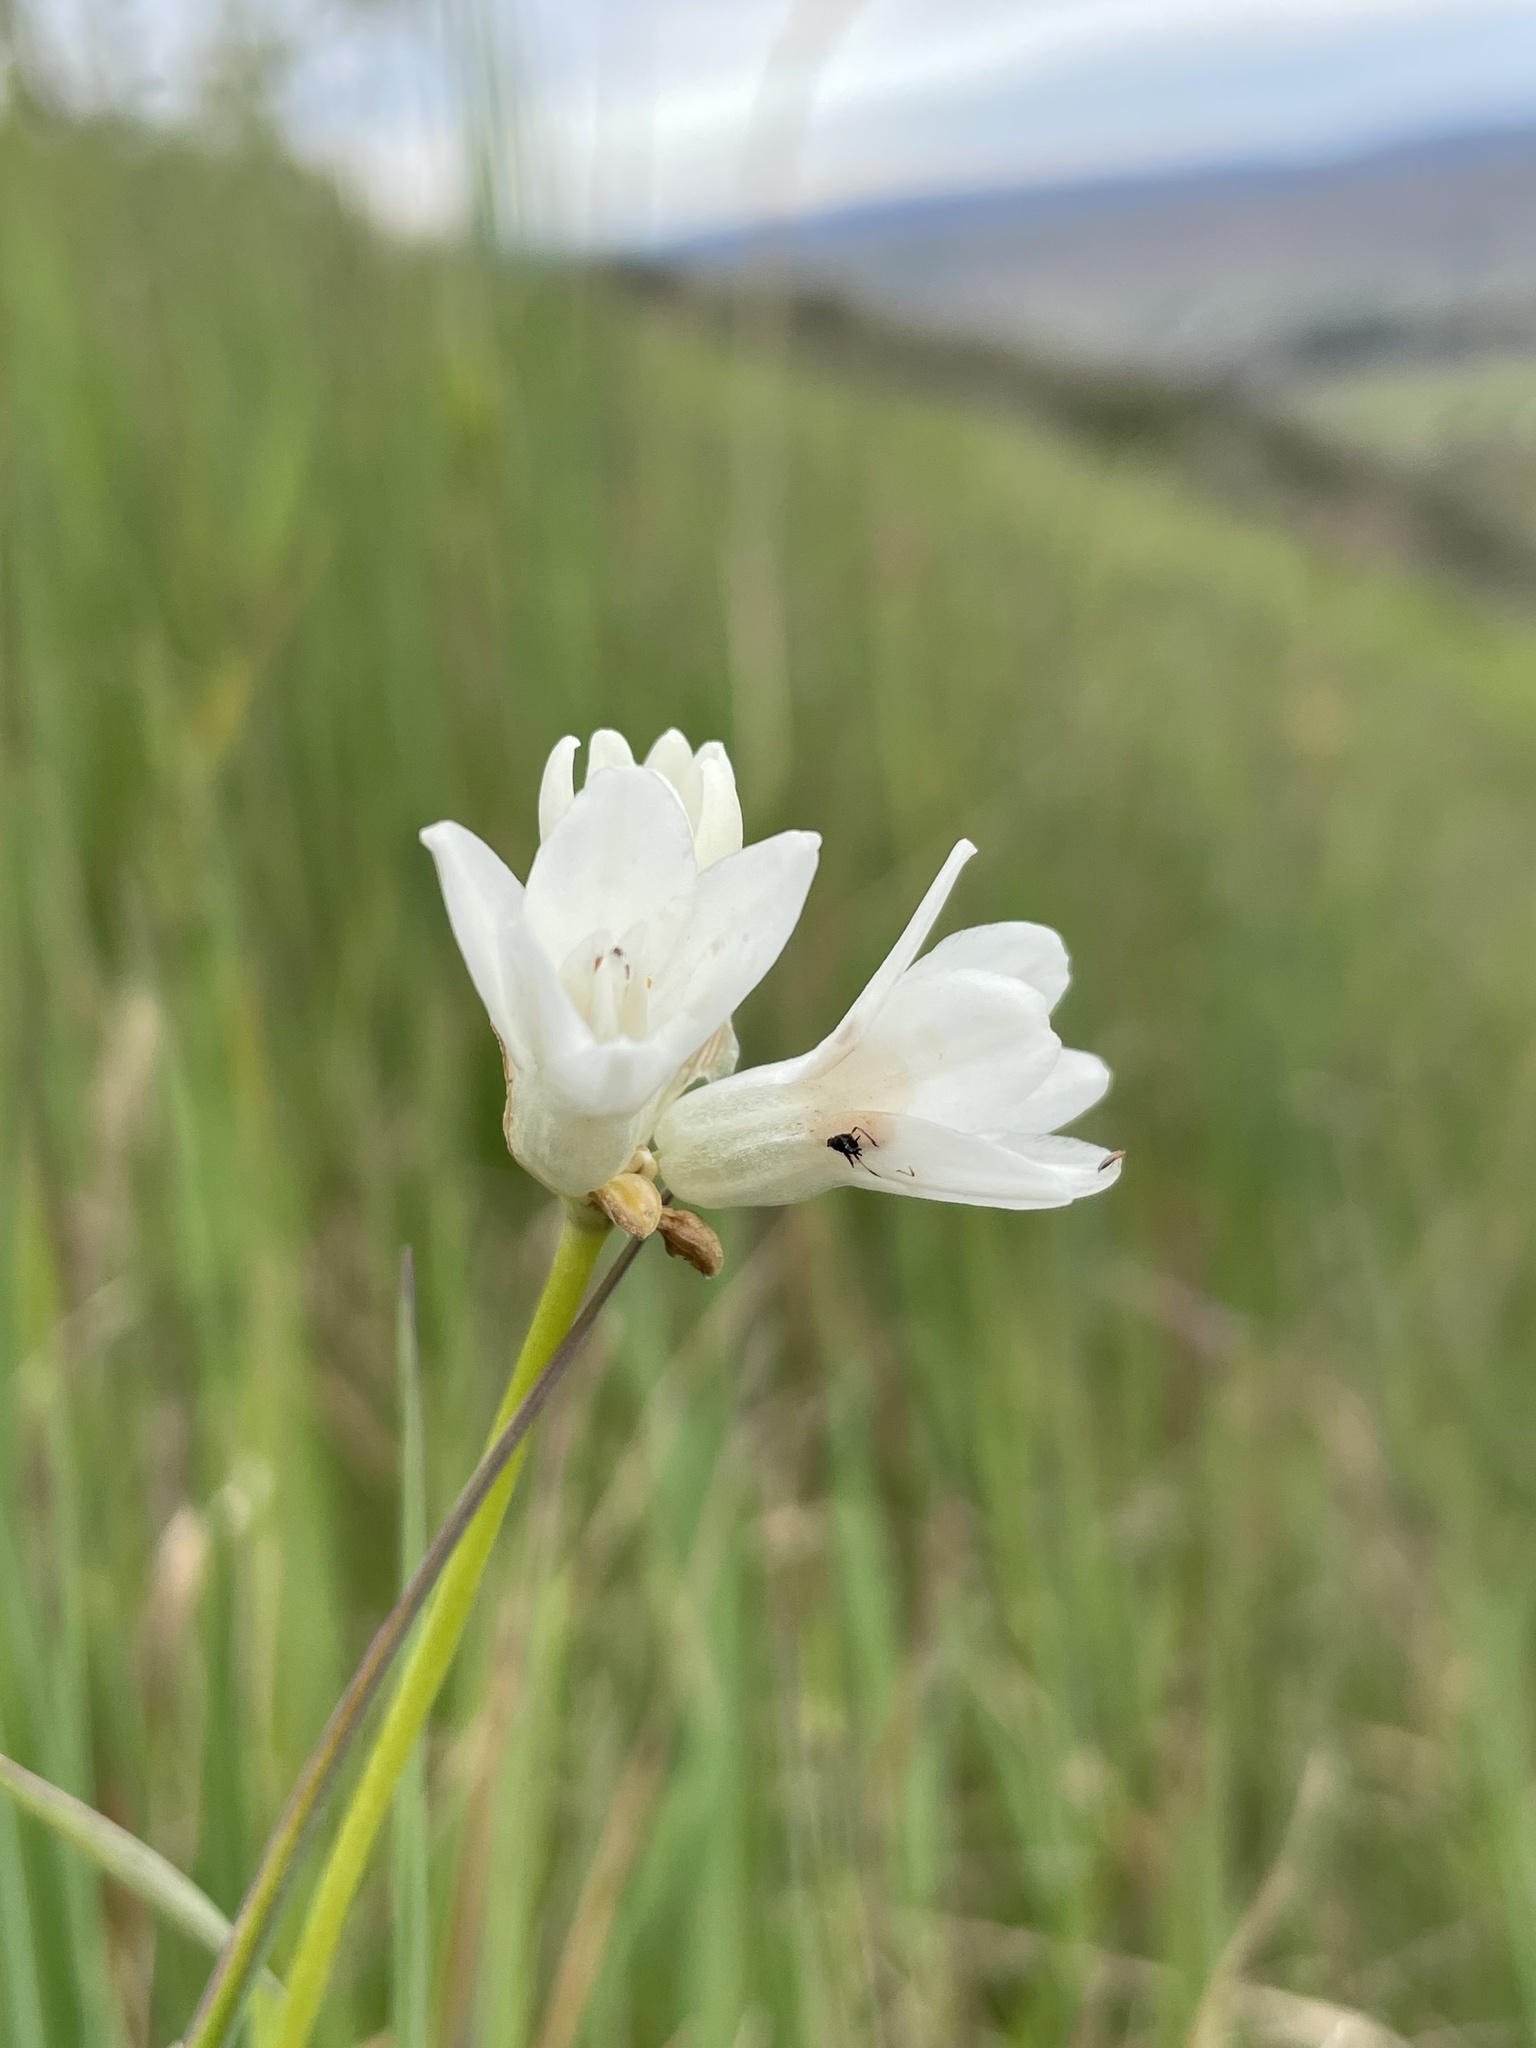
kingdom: Plantae
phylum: Tracheophyta
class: Liliopsida
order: Asparagales
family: Asparagaceae
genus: Dipterostemon
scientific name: Dipterostemon capitatus
